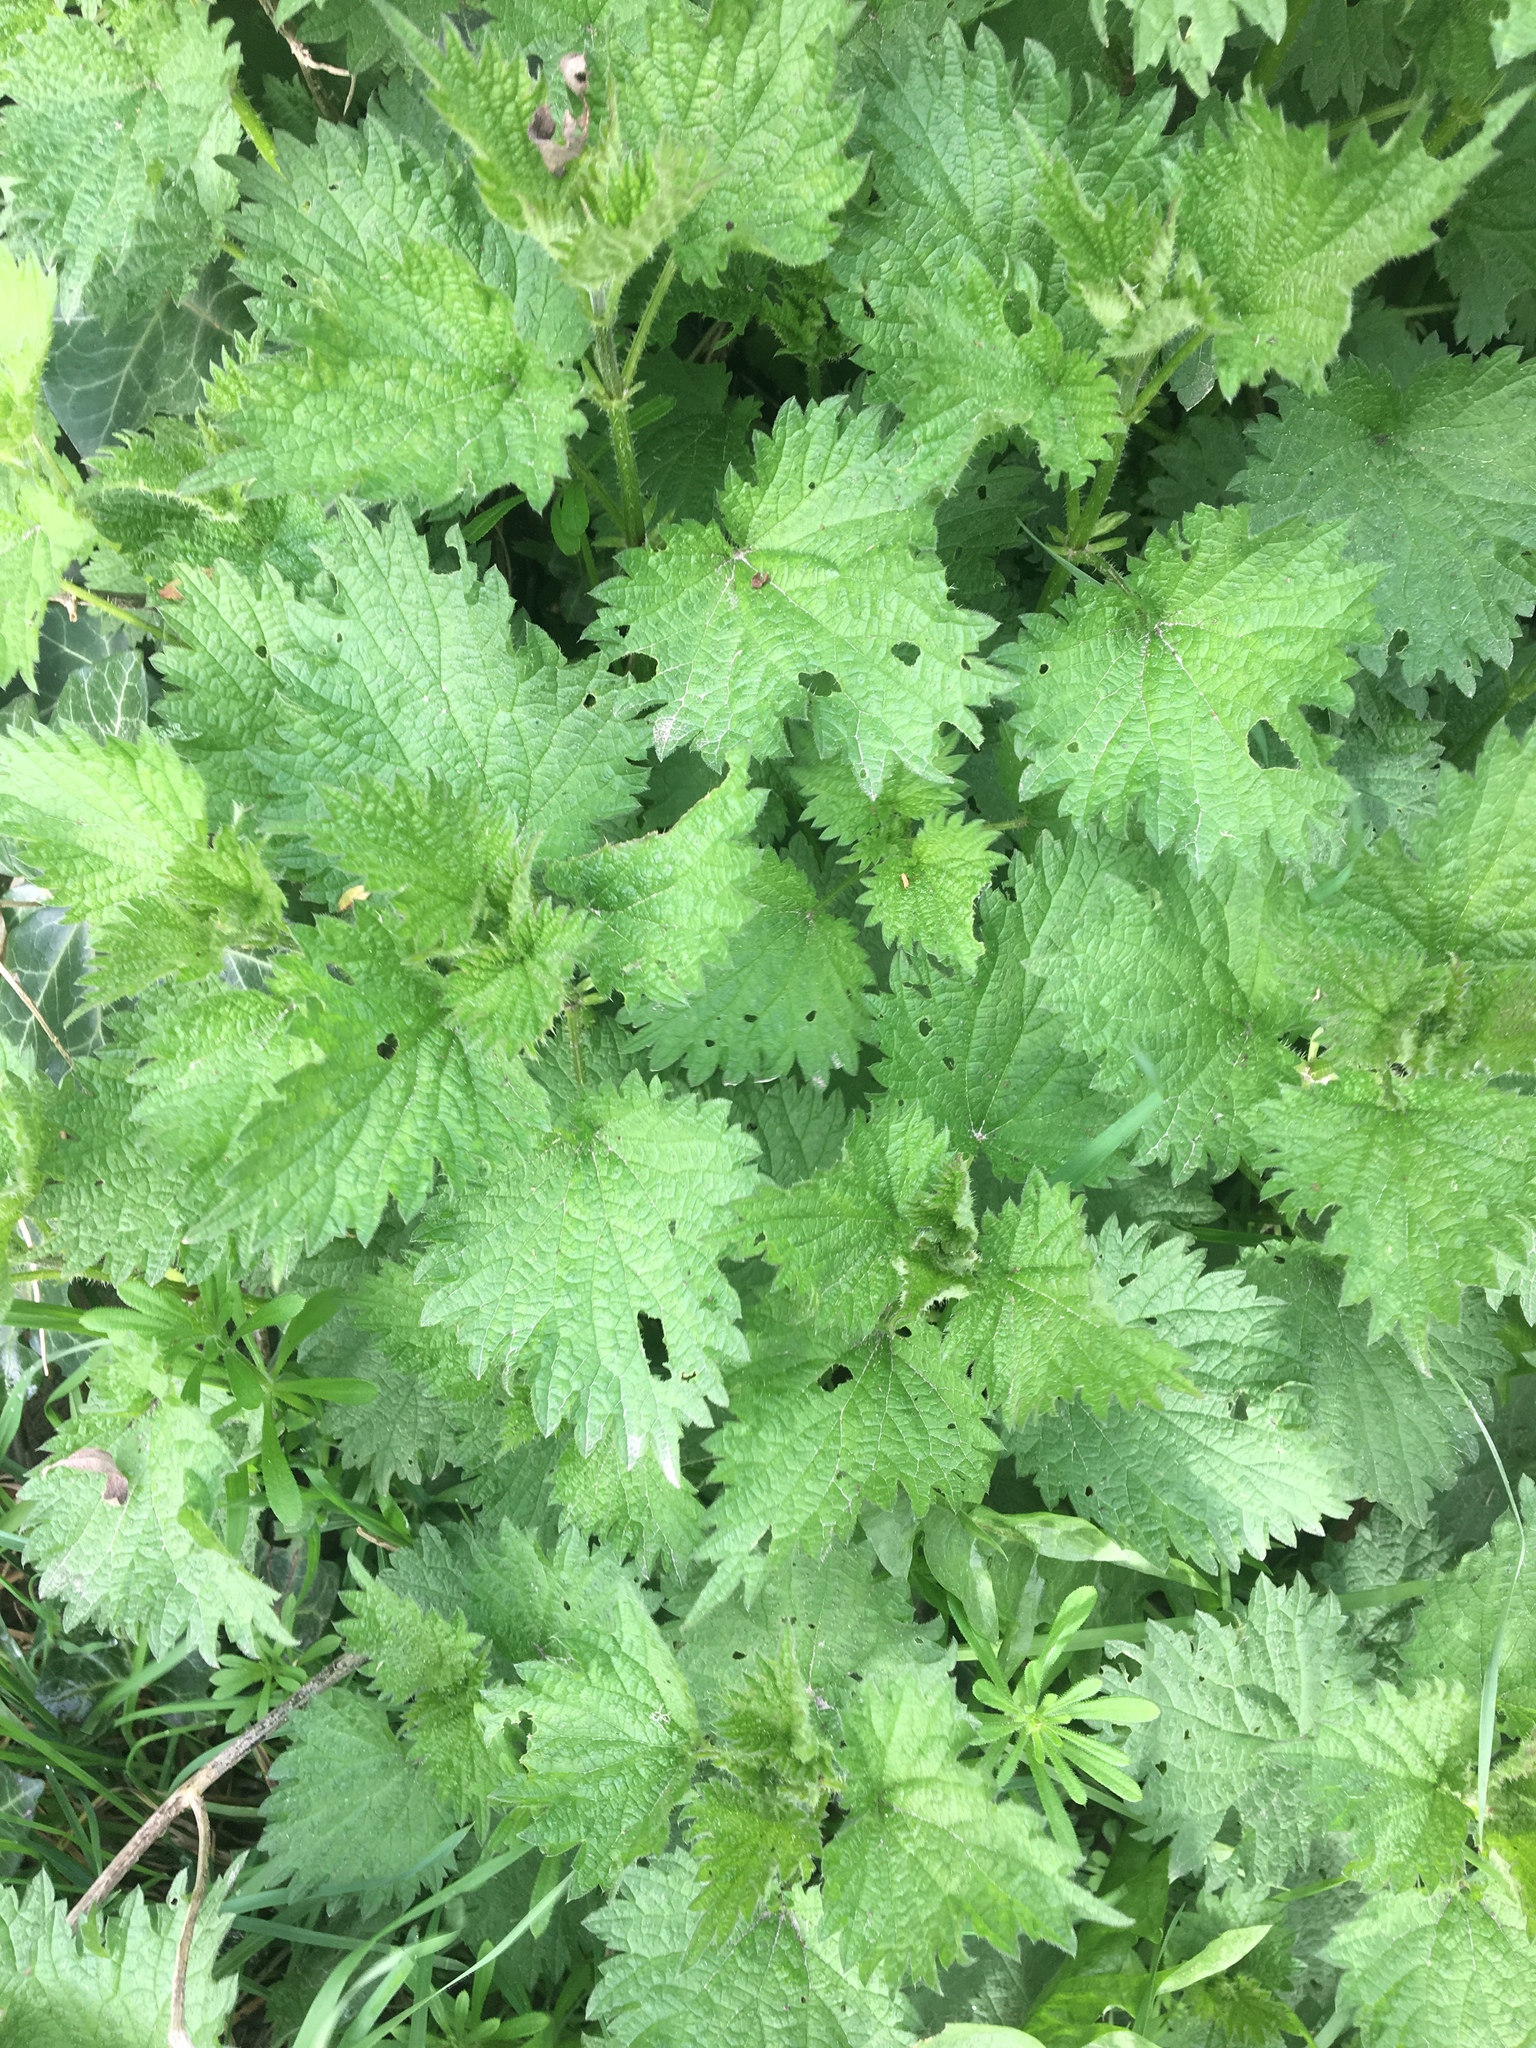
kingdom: Plantae
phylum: Tracheophyta
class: Magnoliopsida
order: Rosales
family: Urticaceae
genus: Urtica
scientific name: Urtica dioica
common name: Common nettle
